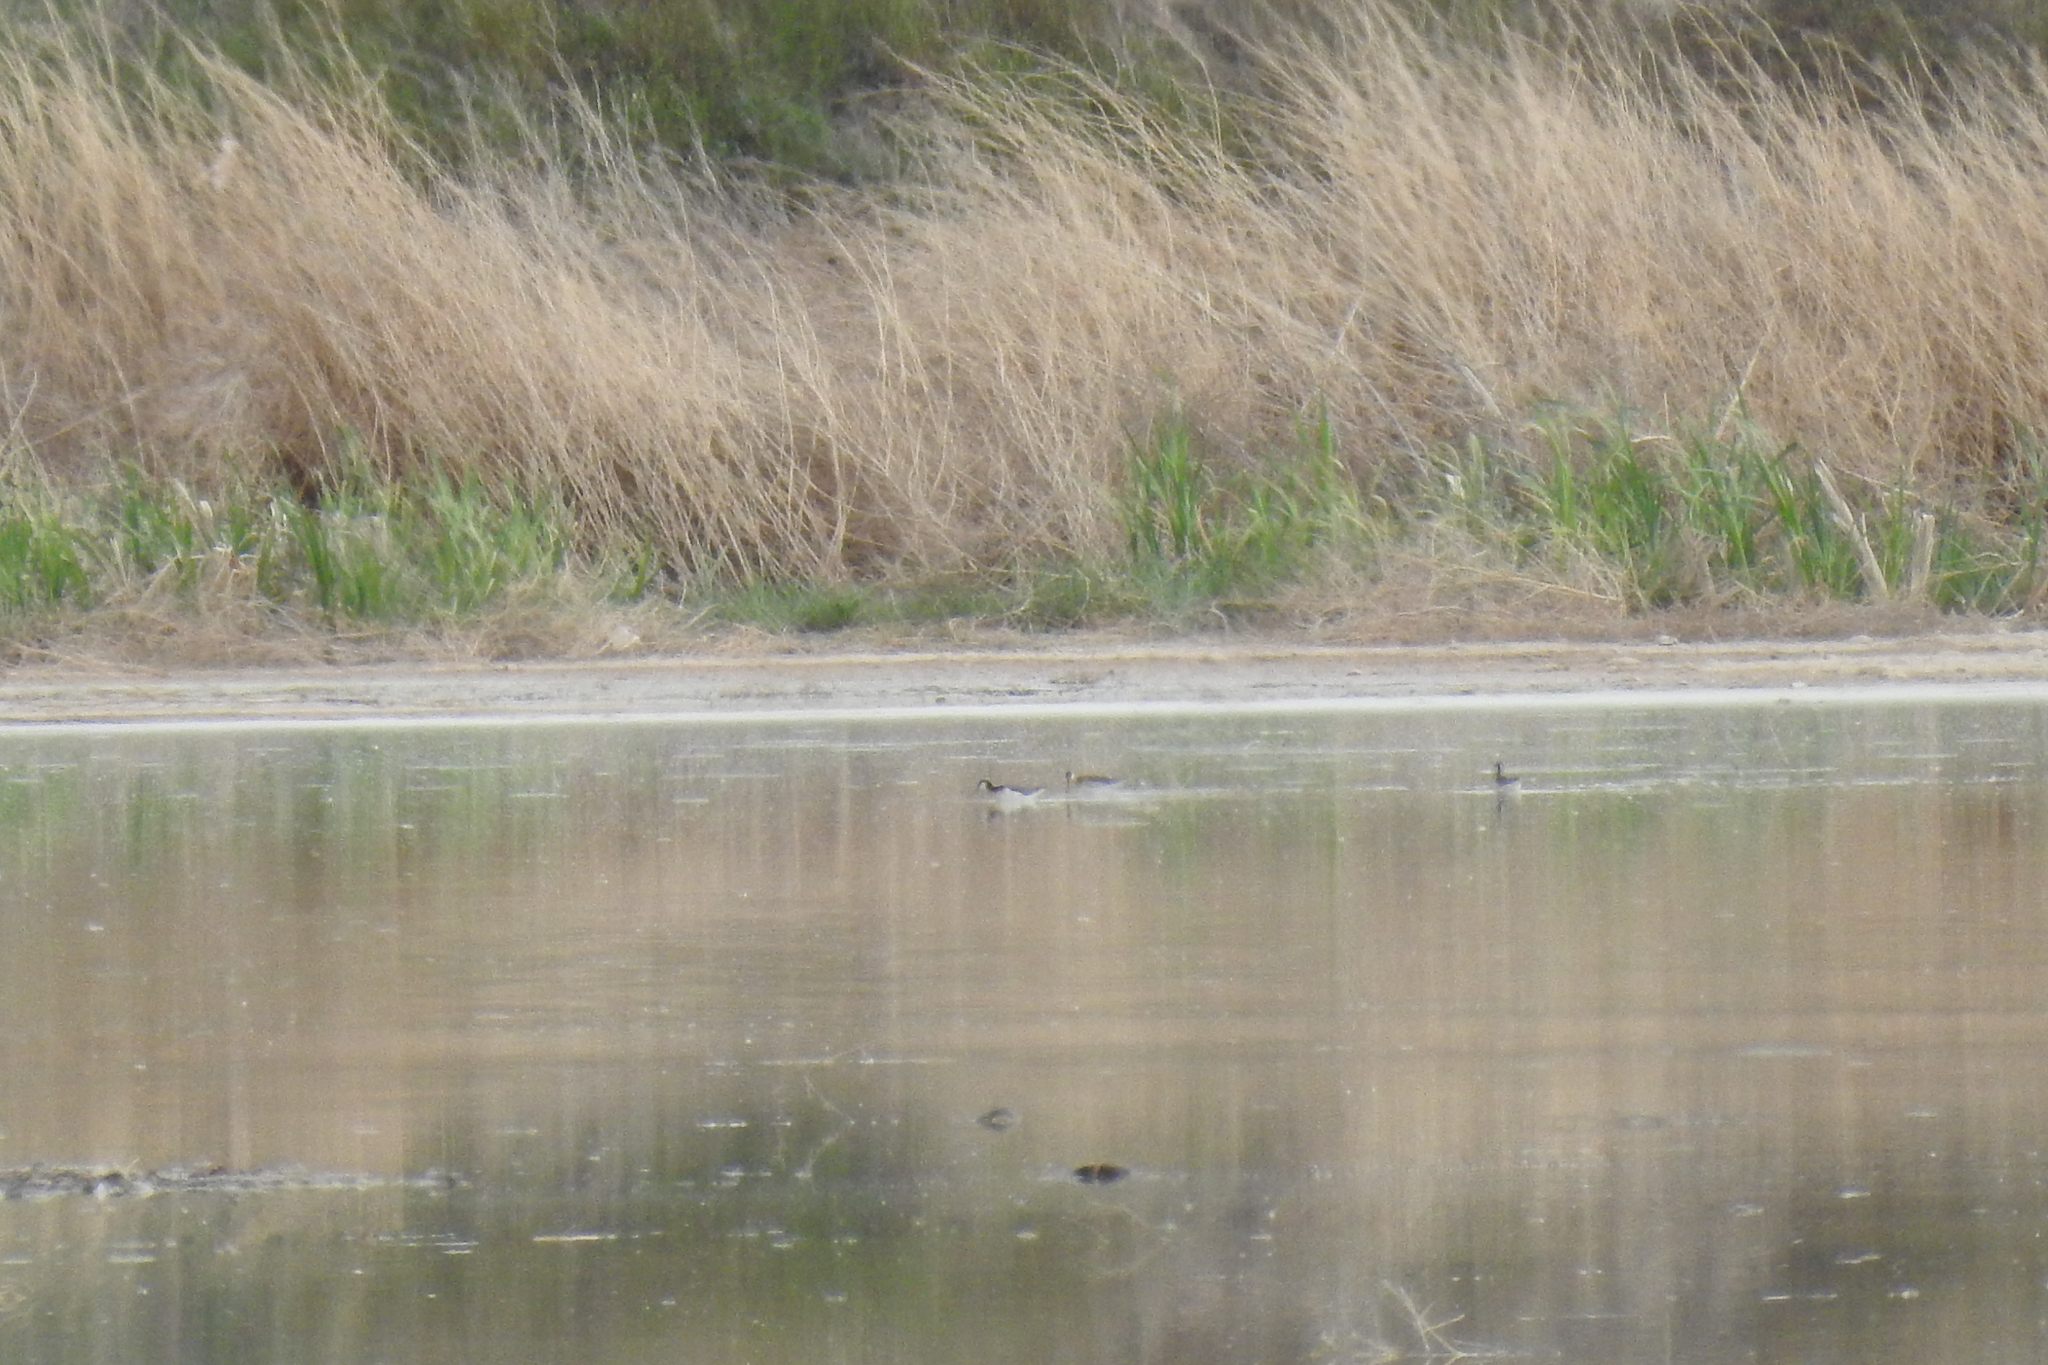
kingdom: Animalia
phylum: Chordata
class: Aves
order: Charadriiformes
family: Scolopacidae
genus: Phalaropus
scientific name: Phalaropus tricolor
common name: Wilson's phalarope
